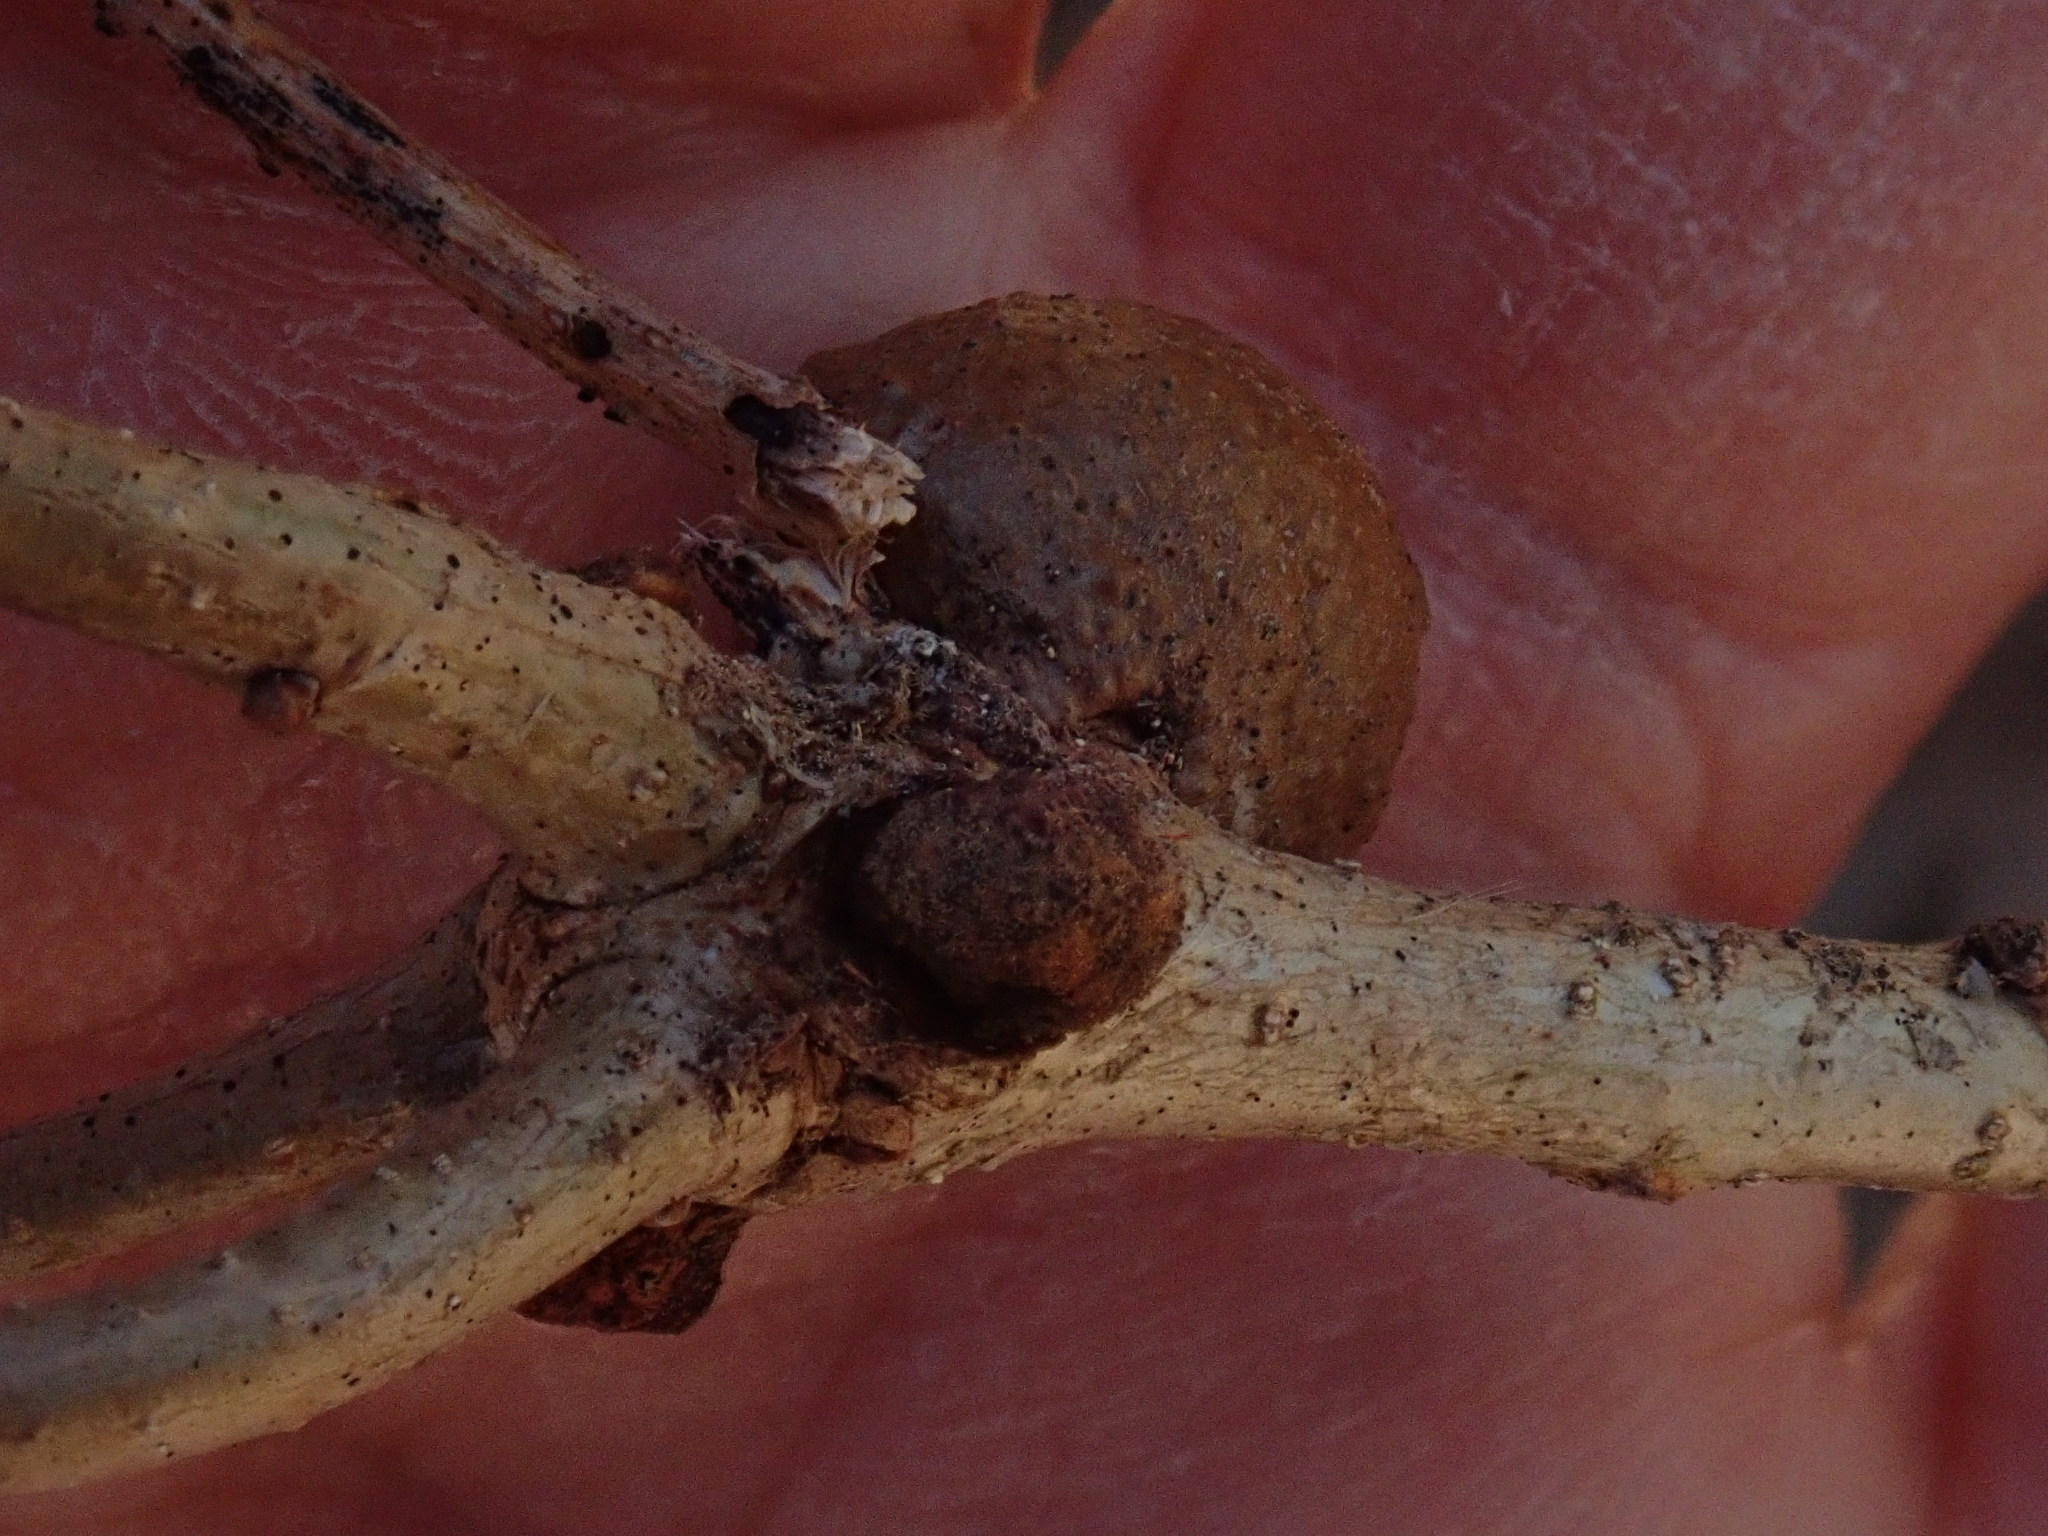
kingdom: Animalia
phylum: Arthropoda
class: Insecta
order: Hymenoptera
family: Cynipidae
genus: Disholcaspis
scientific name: Disholcaspis quercusglobulus
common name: Round bullet gall wasp
